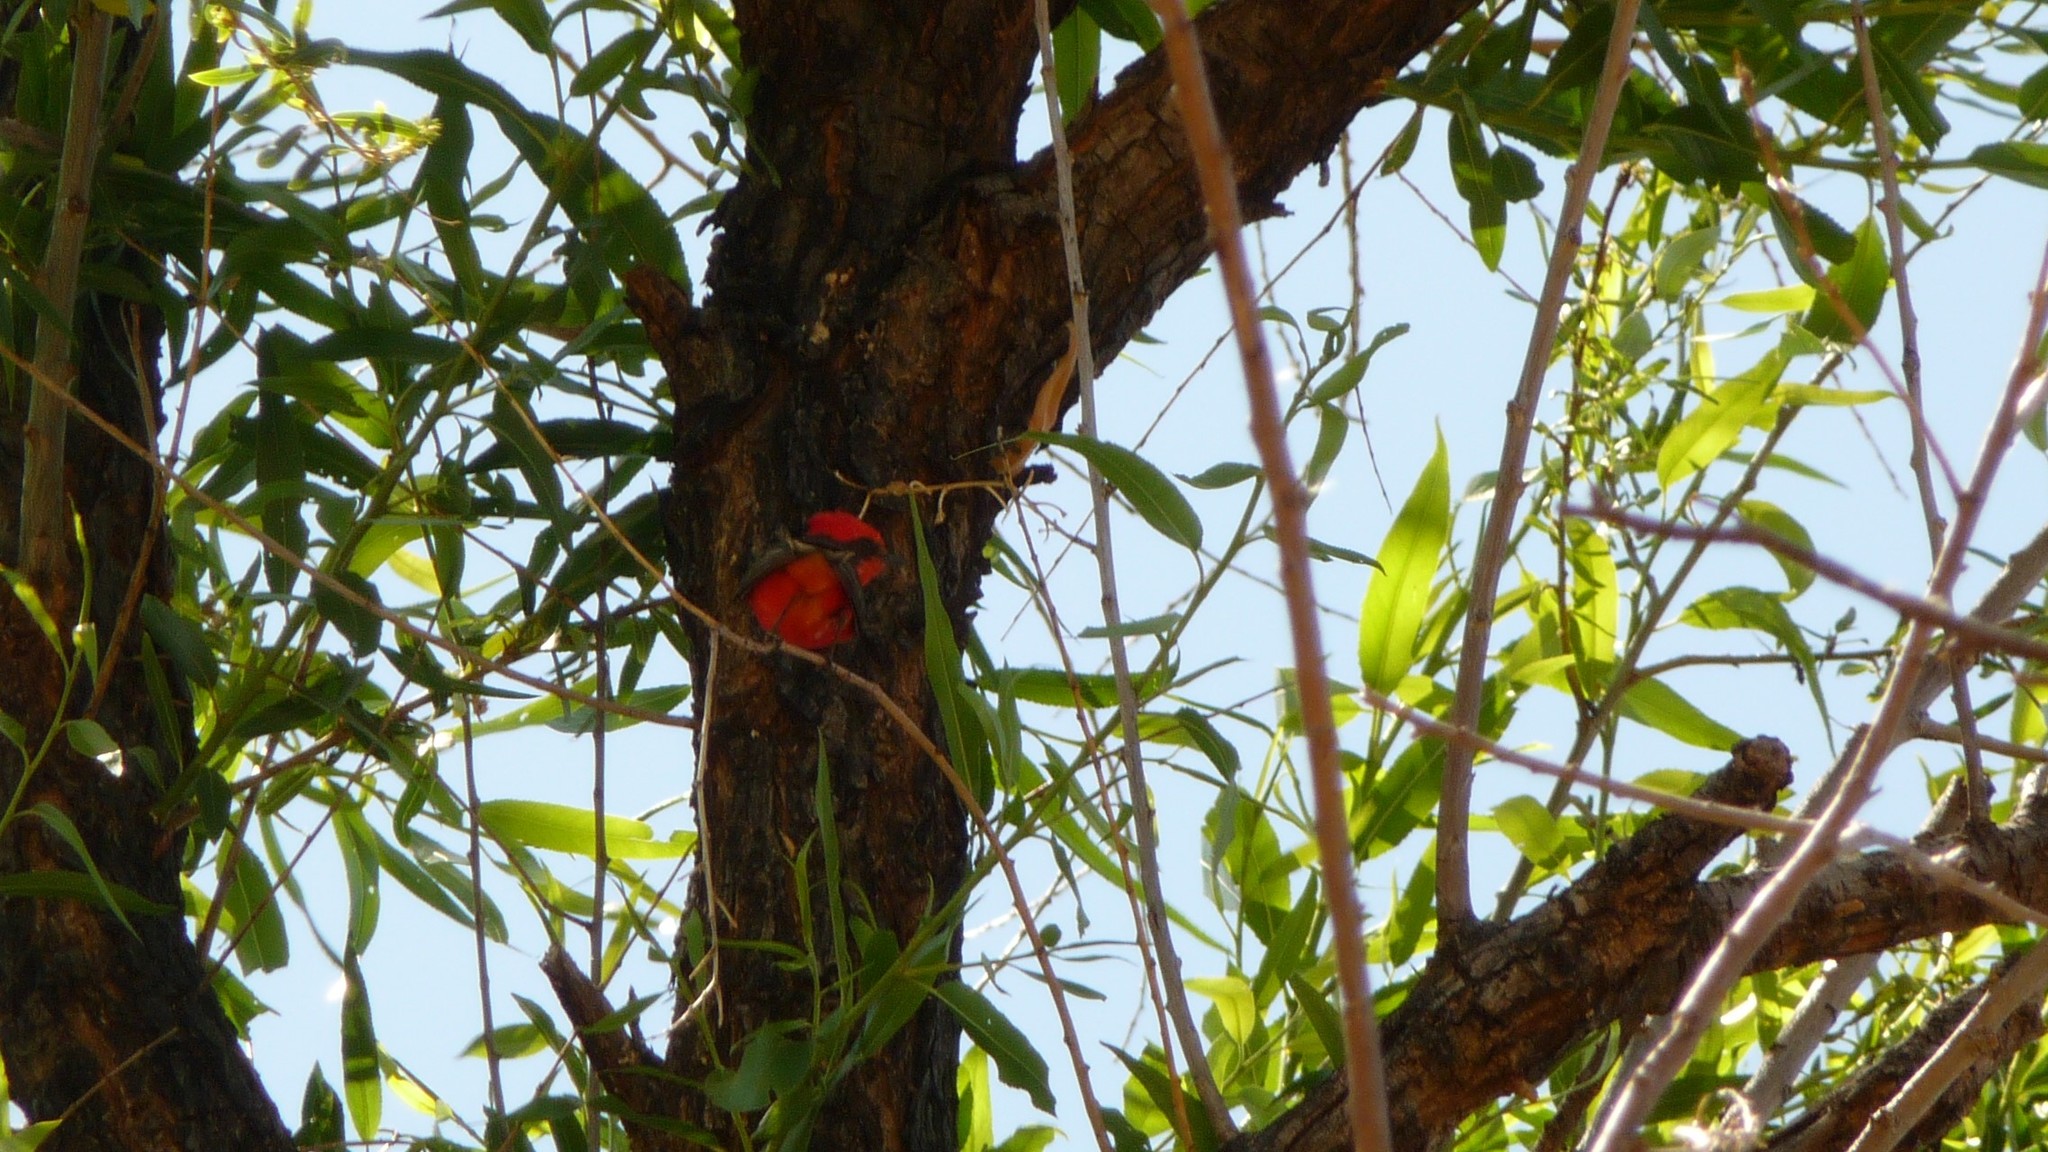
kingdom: Animalia
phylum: Chordata
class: Aves
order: Passeriformes
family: Tyrannidae
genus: Pyrocephalus
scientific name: Pyrocephalus rubinus
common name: Vermilion flycatcher
